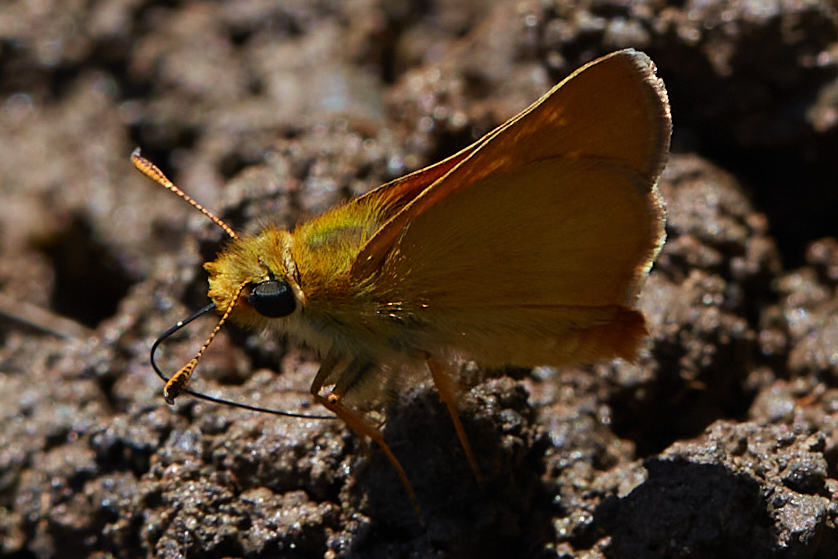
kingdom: Animalia
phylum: Arthropoda
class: Insecta
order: Lepidoptera
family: Hesperiidae
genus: Ochlodes
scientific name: Ochlodes agricola
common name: Rural skipper
